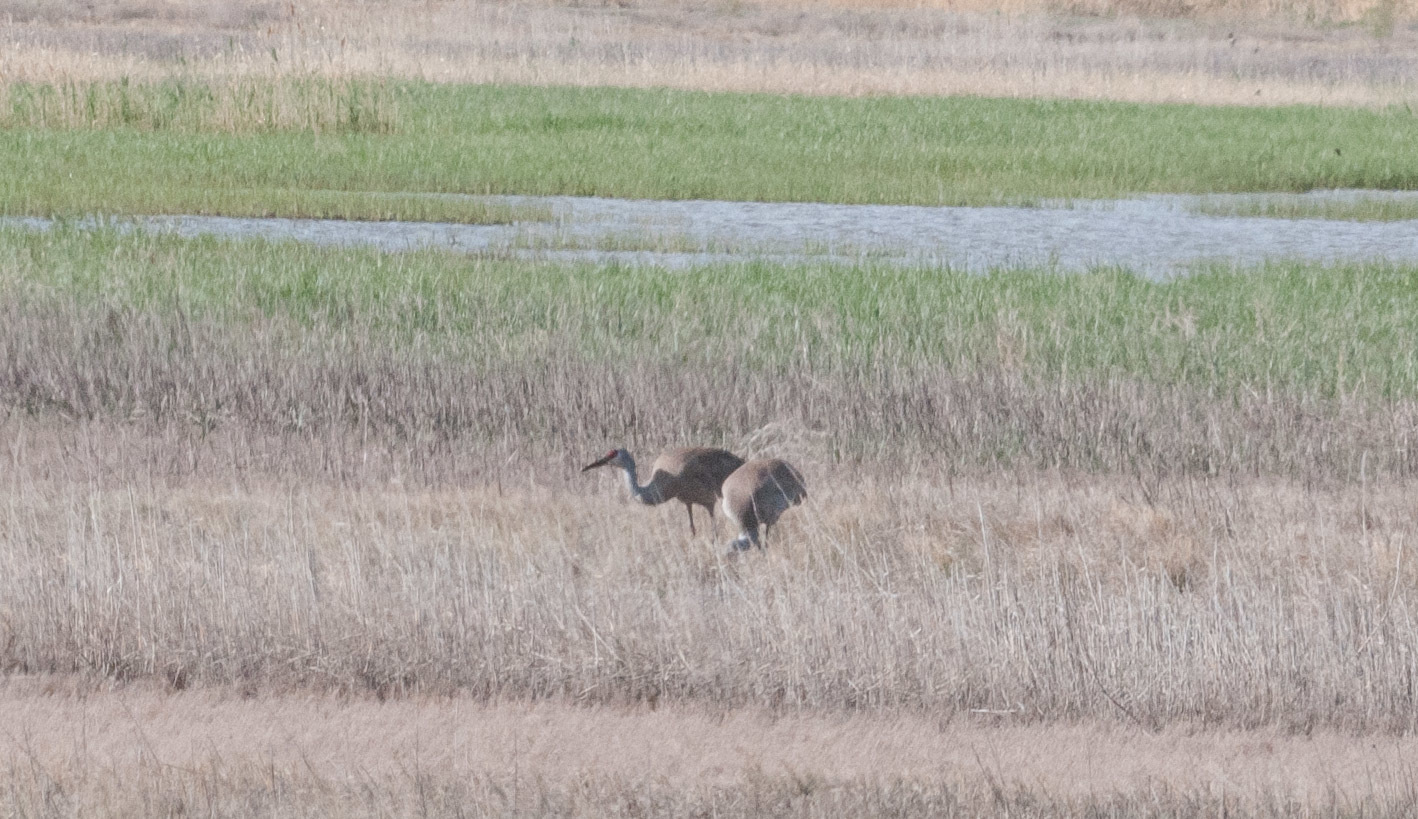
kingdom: Animalia
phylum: Chordata
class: Aves
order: Gruiformes
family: Gruidae
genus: Grus
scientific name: Grus canadensis
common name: Sandhill crane
